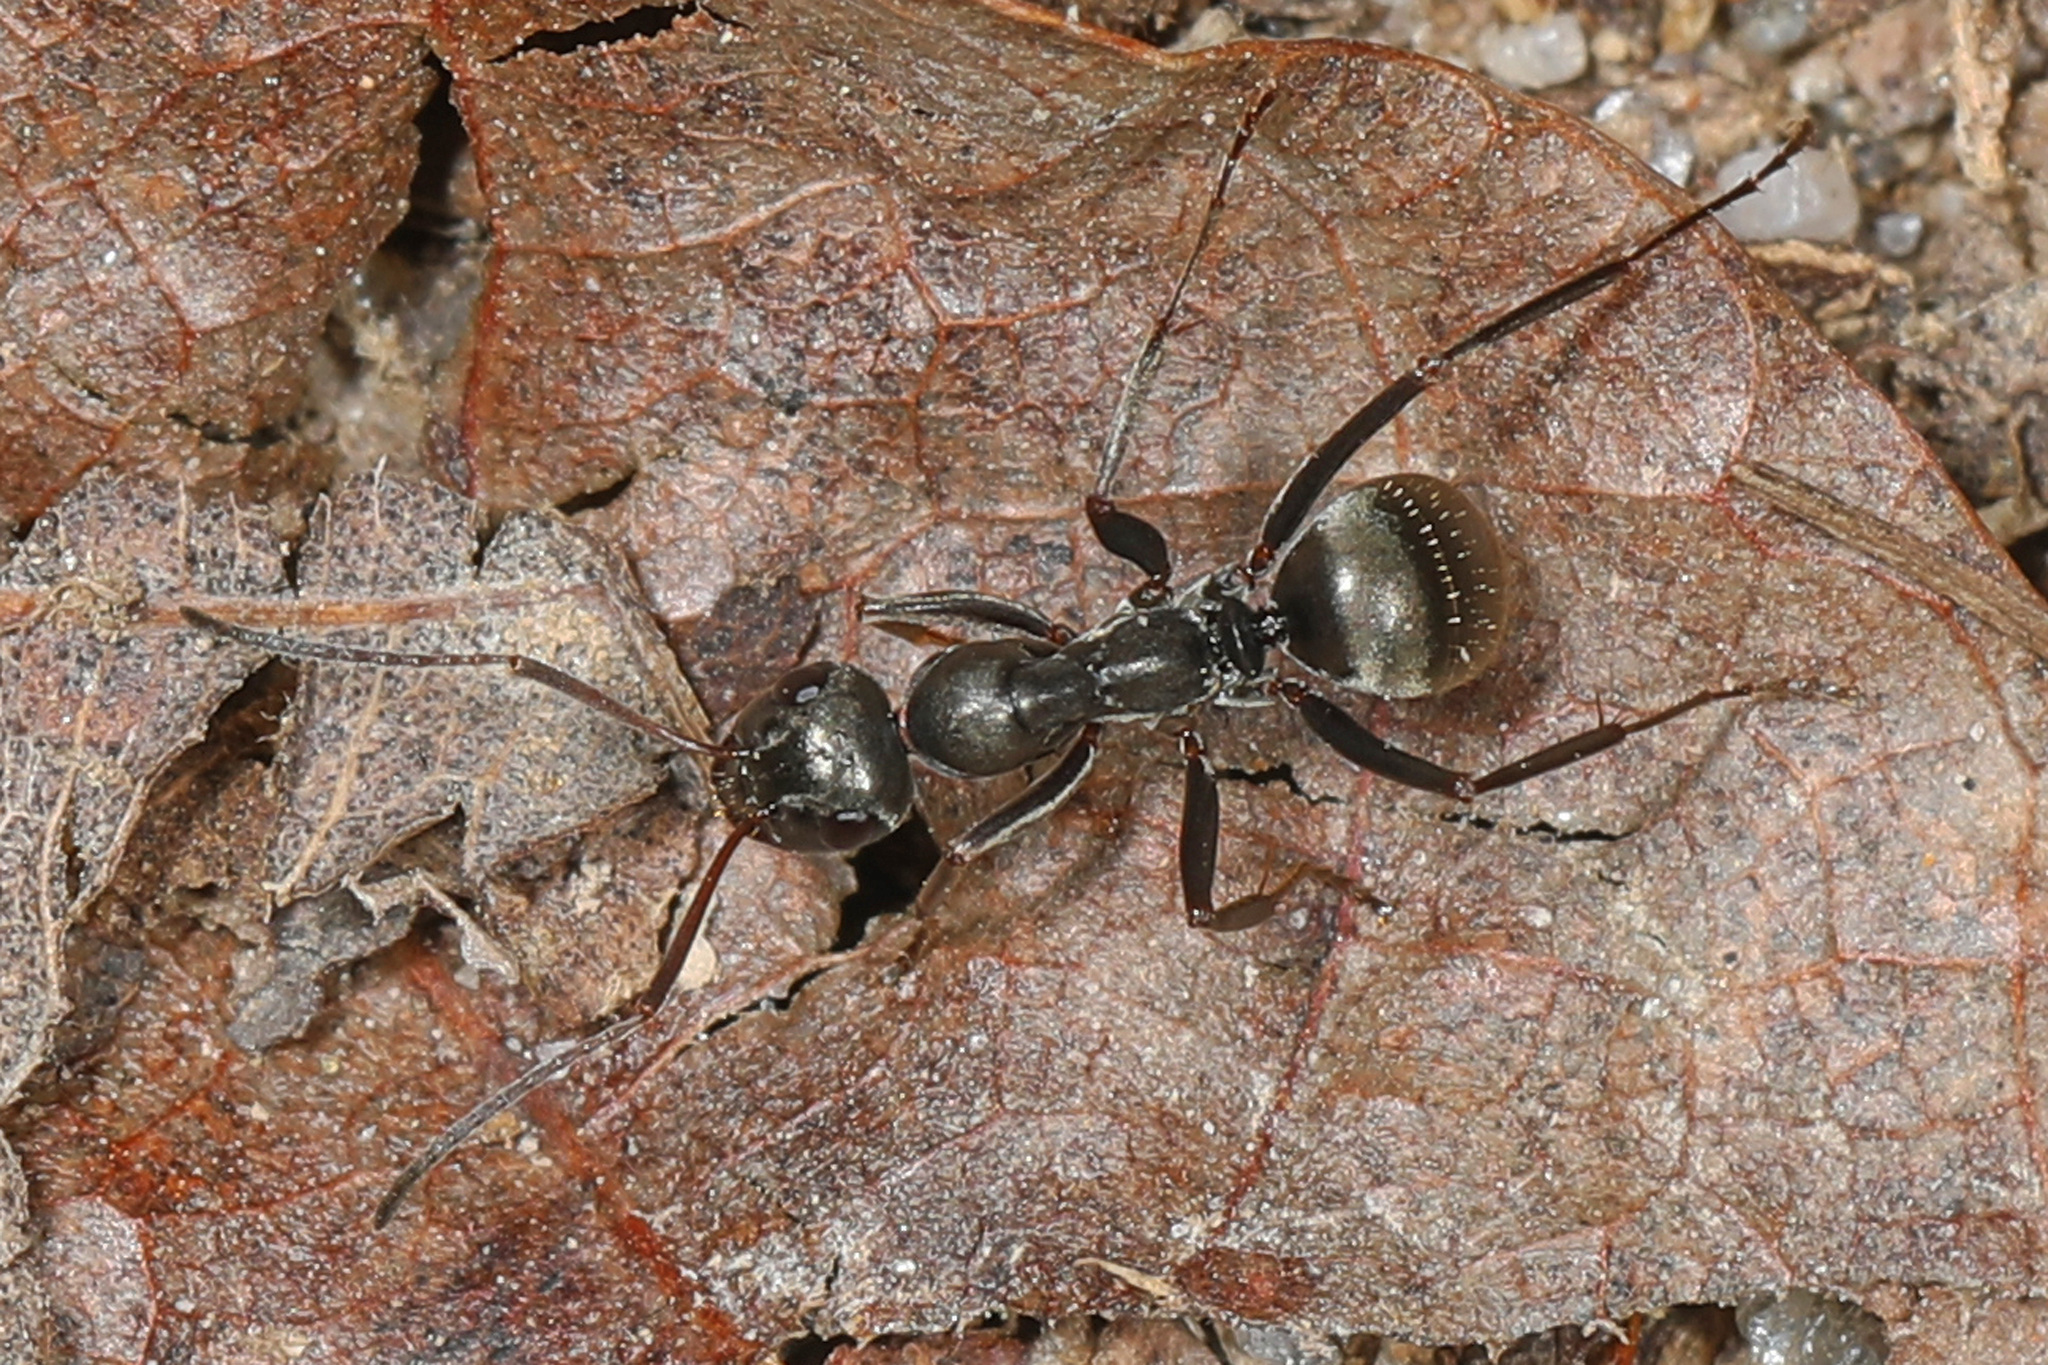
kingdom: Animalia
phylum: Arthropoda
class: Insecta
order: Hymenoptera
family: Formicidae
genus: Formica
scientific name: Formica subsericea
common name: Silky field ant
